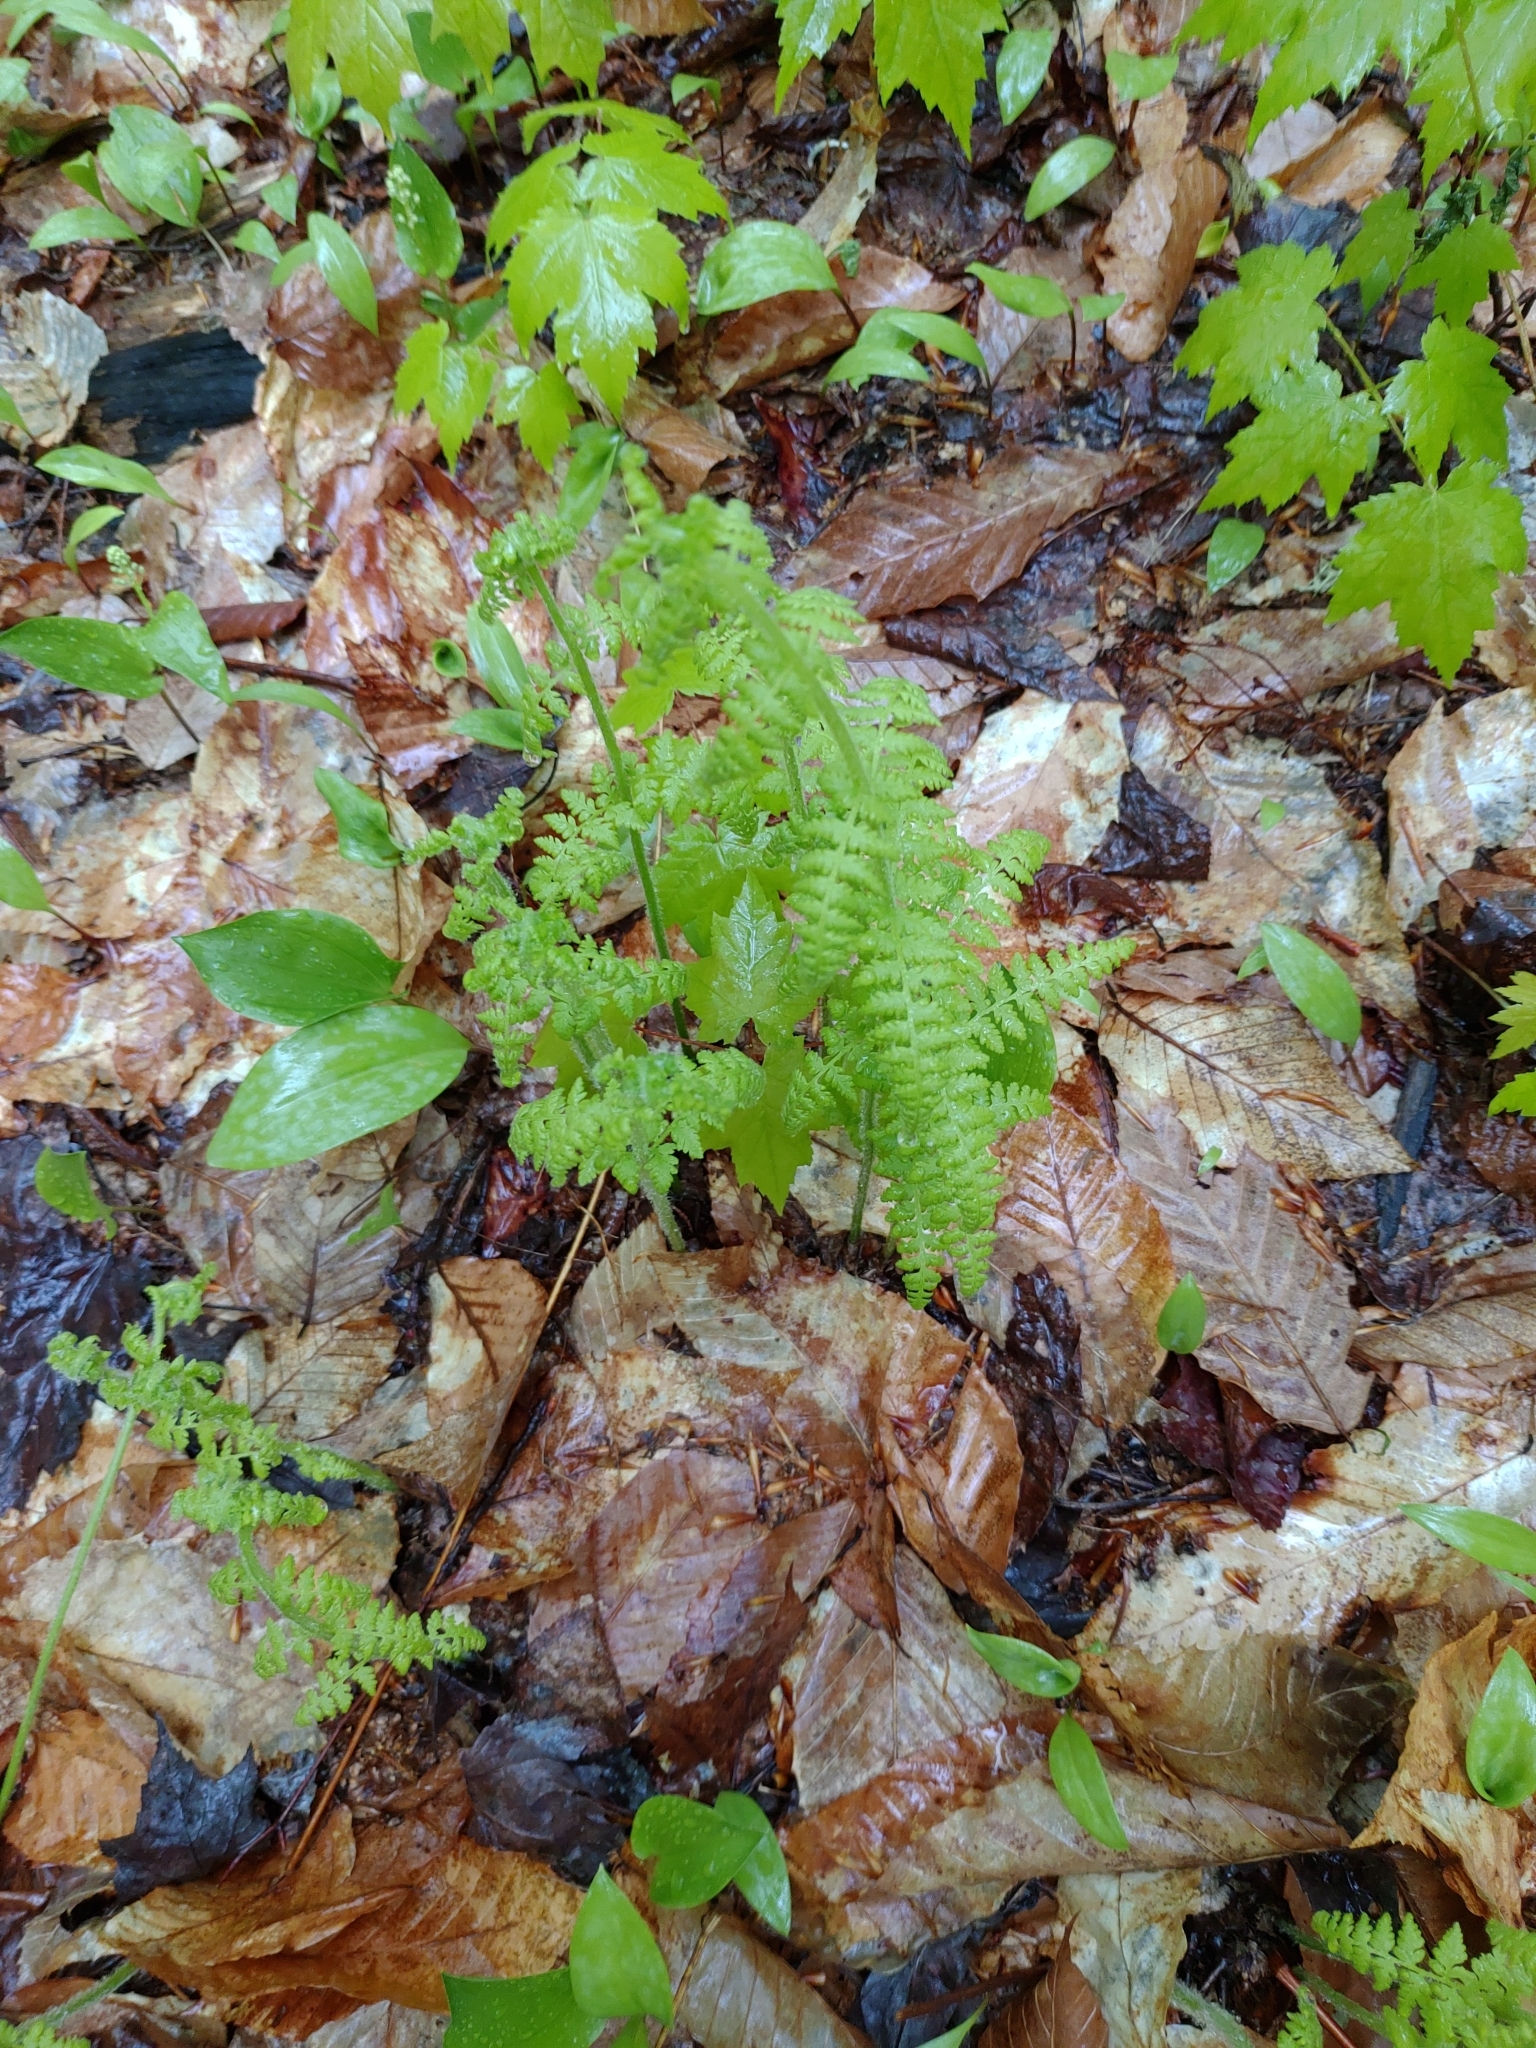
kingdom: Plantae
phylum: Tracheophyta
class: Polypodiopsida
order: Polypodiales
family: Dennstaedtiaceae
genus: Sitobolium
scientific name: Sitobolium punctilobum
